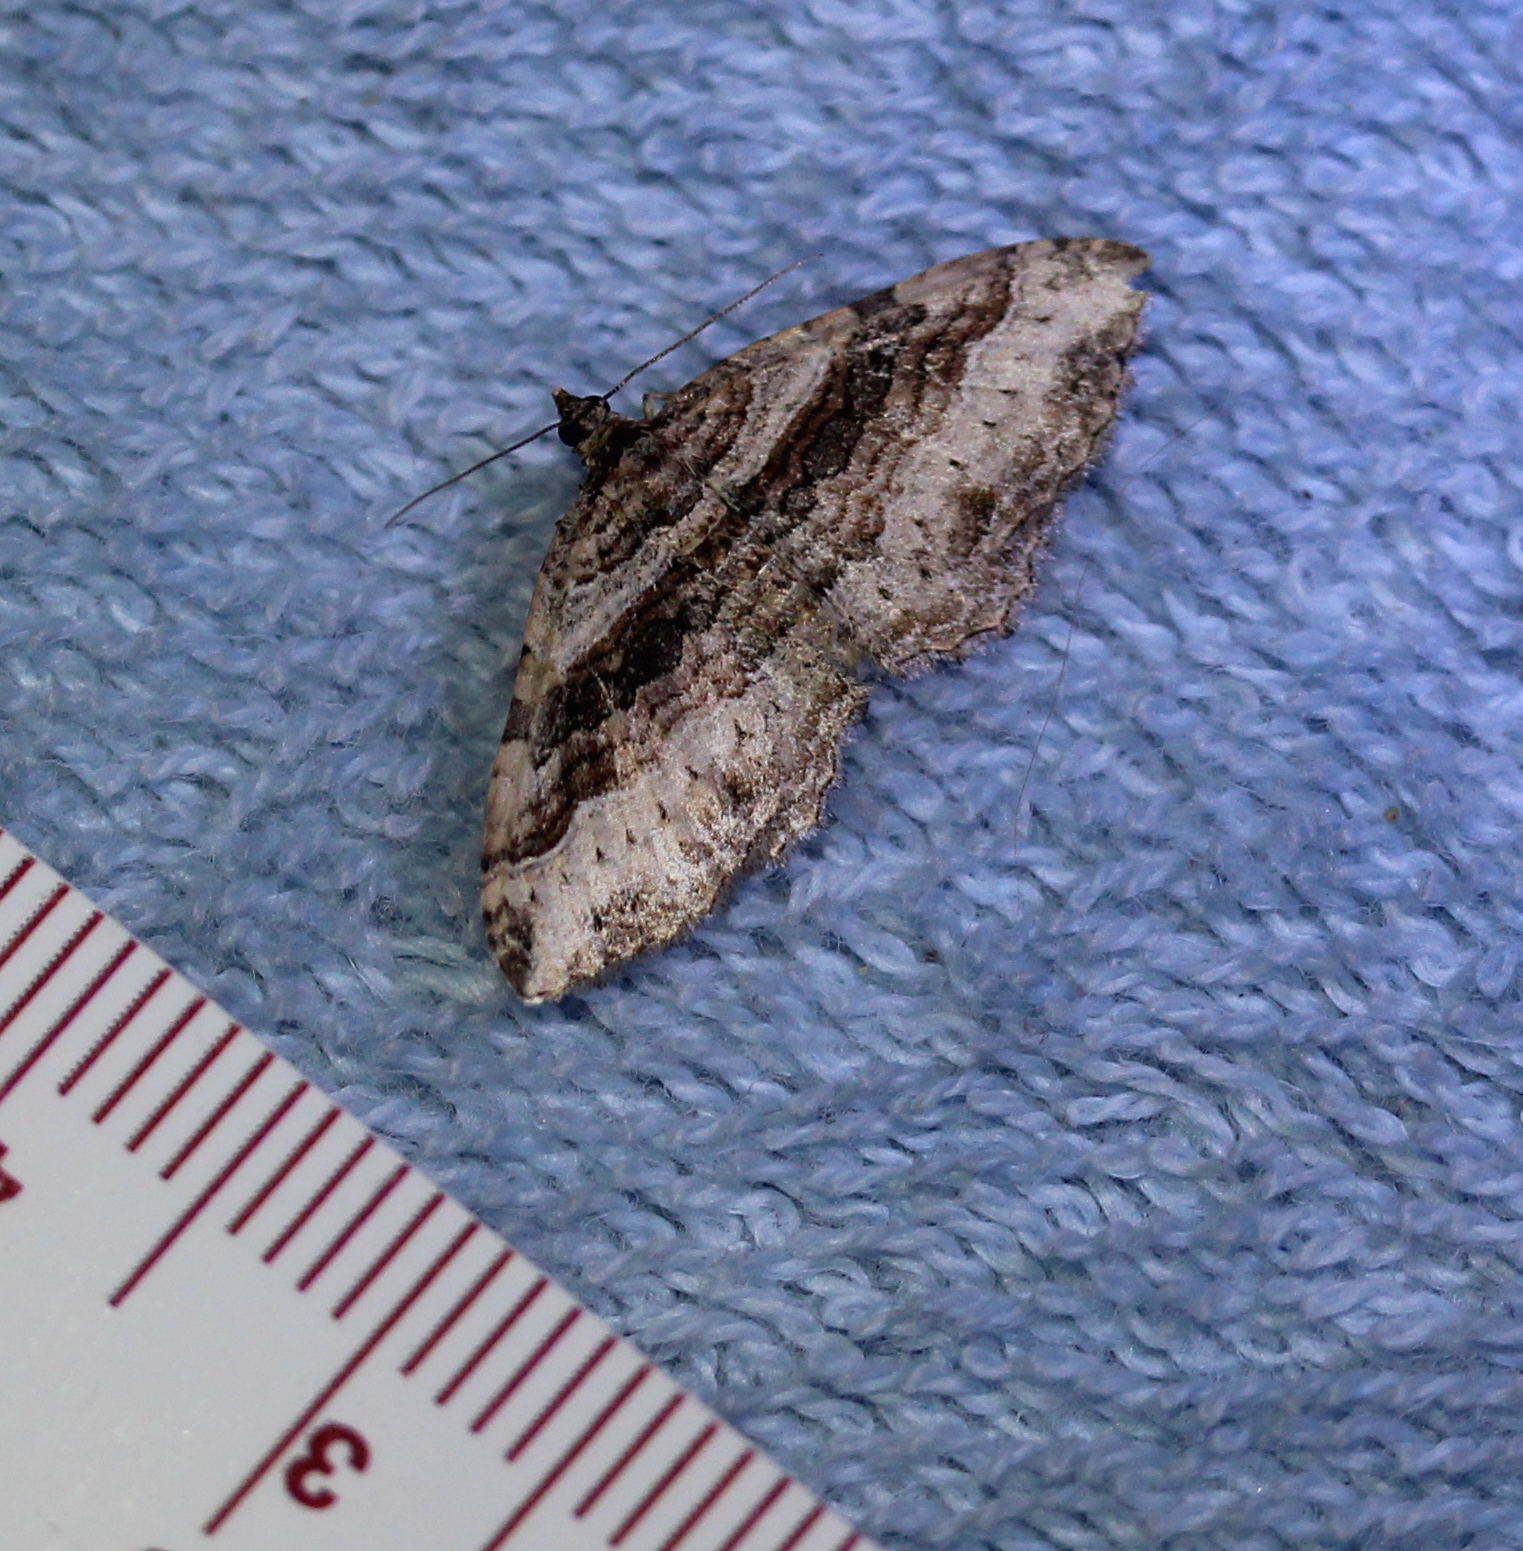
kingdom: Animalia
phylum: Arthropoda
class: Insecta
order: Lepidoptera
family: Geometridae
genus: Costaconvexa
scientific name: Costaconvexa centrostrigaria
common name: Bent-line carpet
